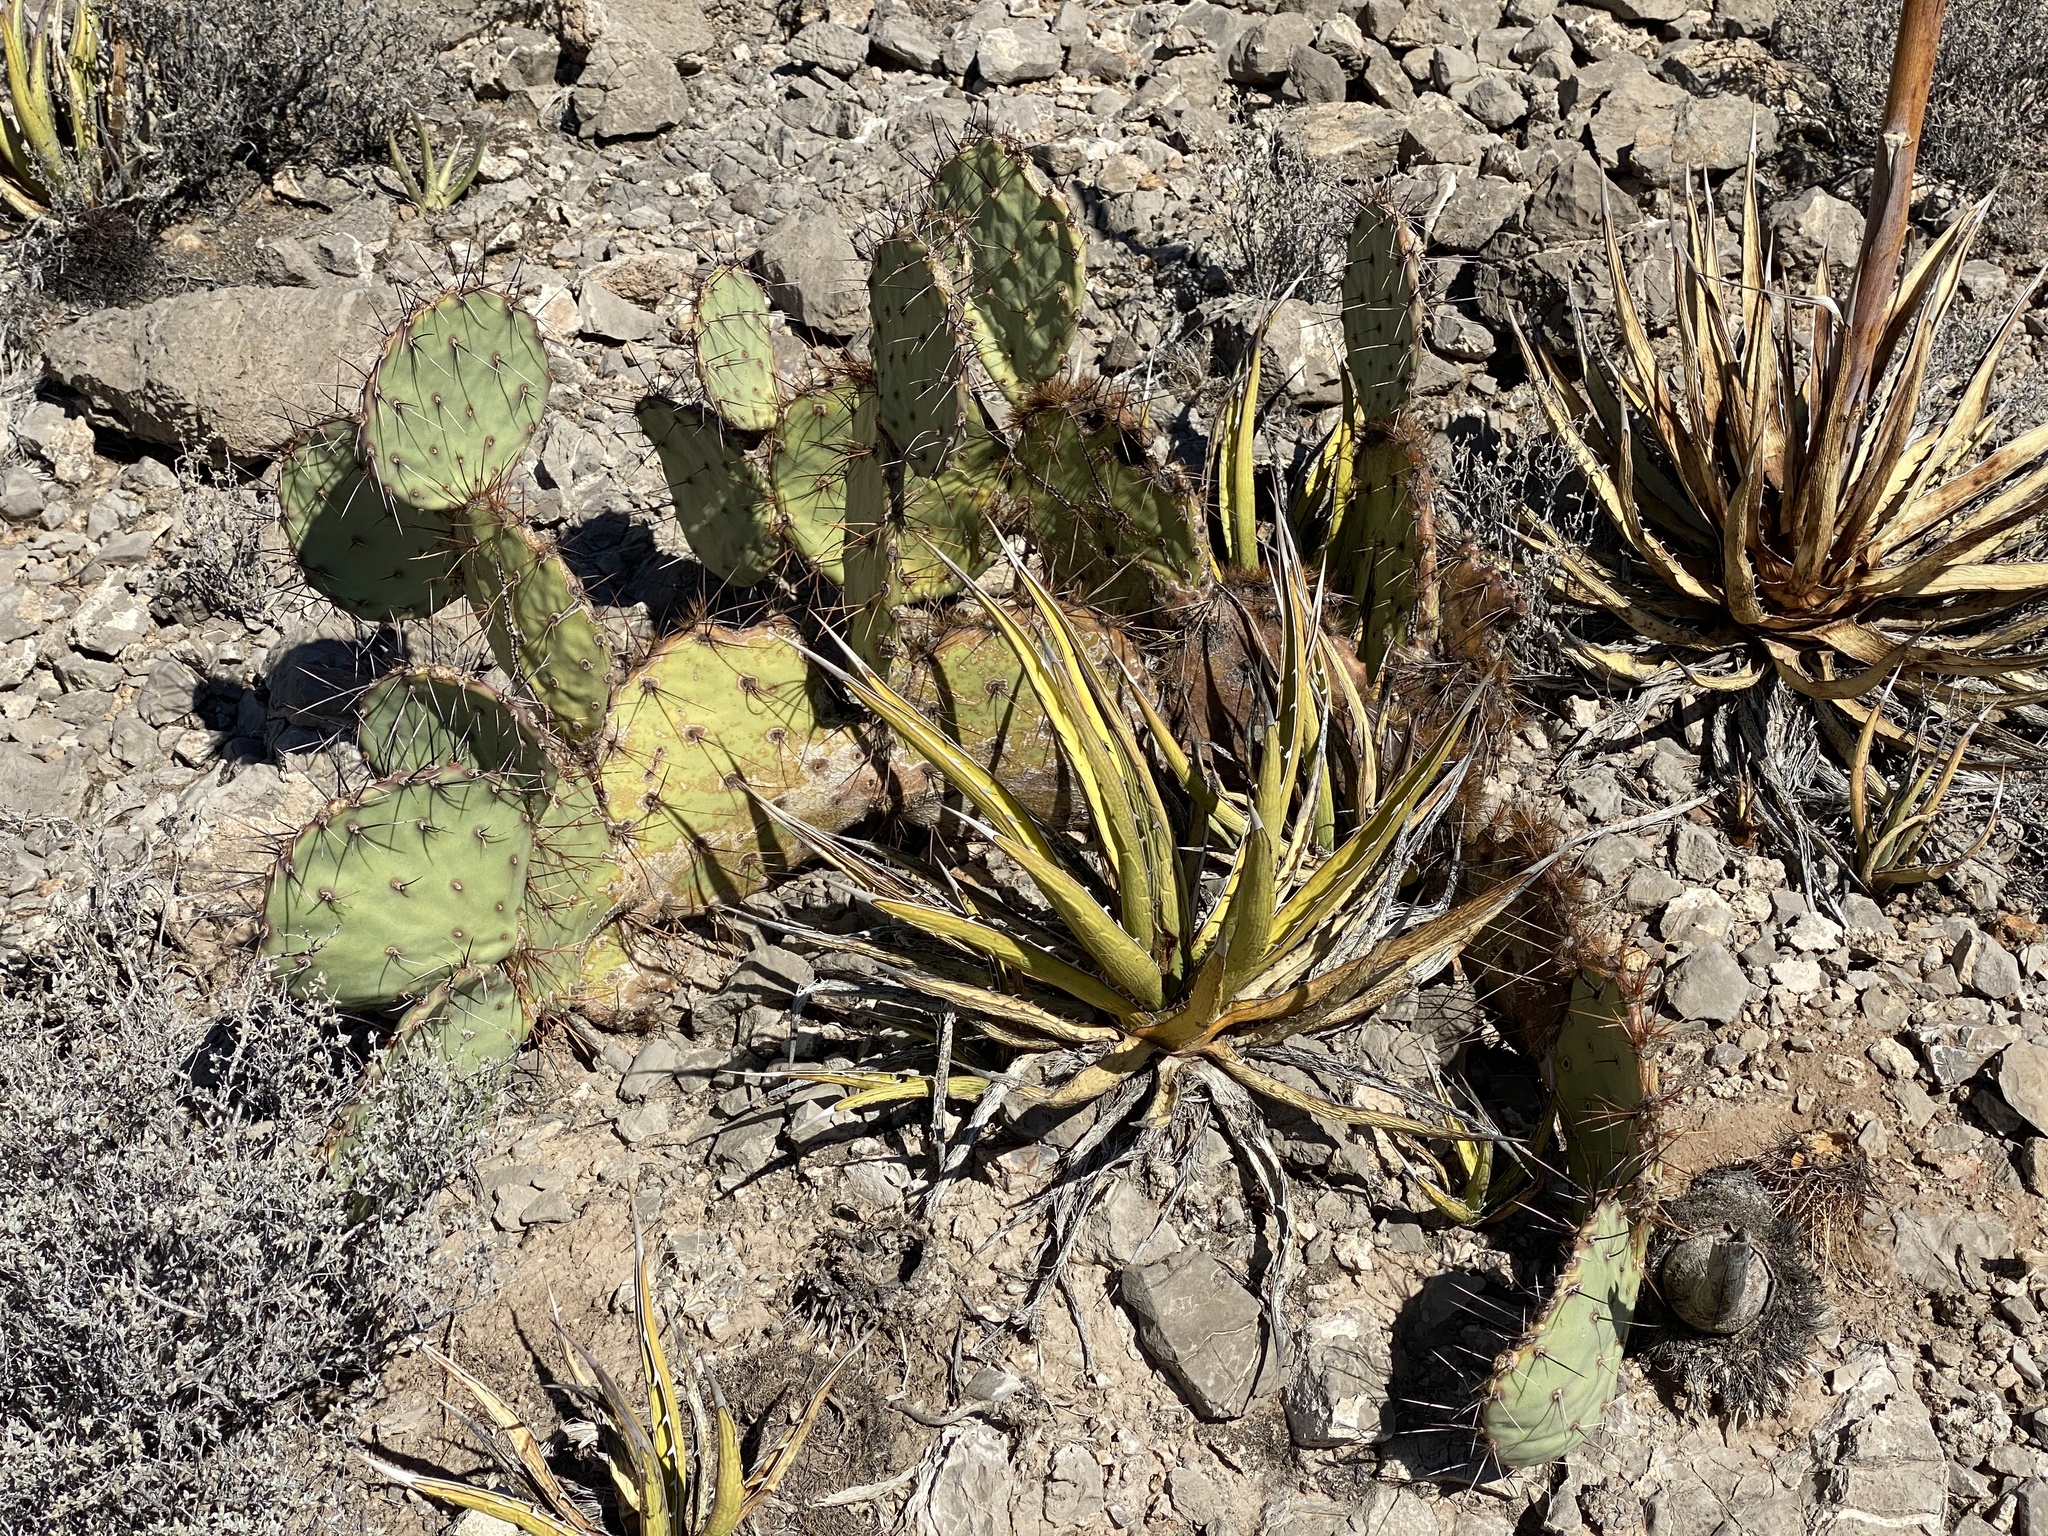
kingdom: Plantae
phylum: Tracheophyta
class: Magnoliopsida
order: Caryophyllales
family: Cactaceae
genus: Opuntia
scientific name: Opuntia phaeacantha
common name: New mexico prickly-pear
